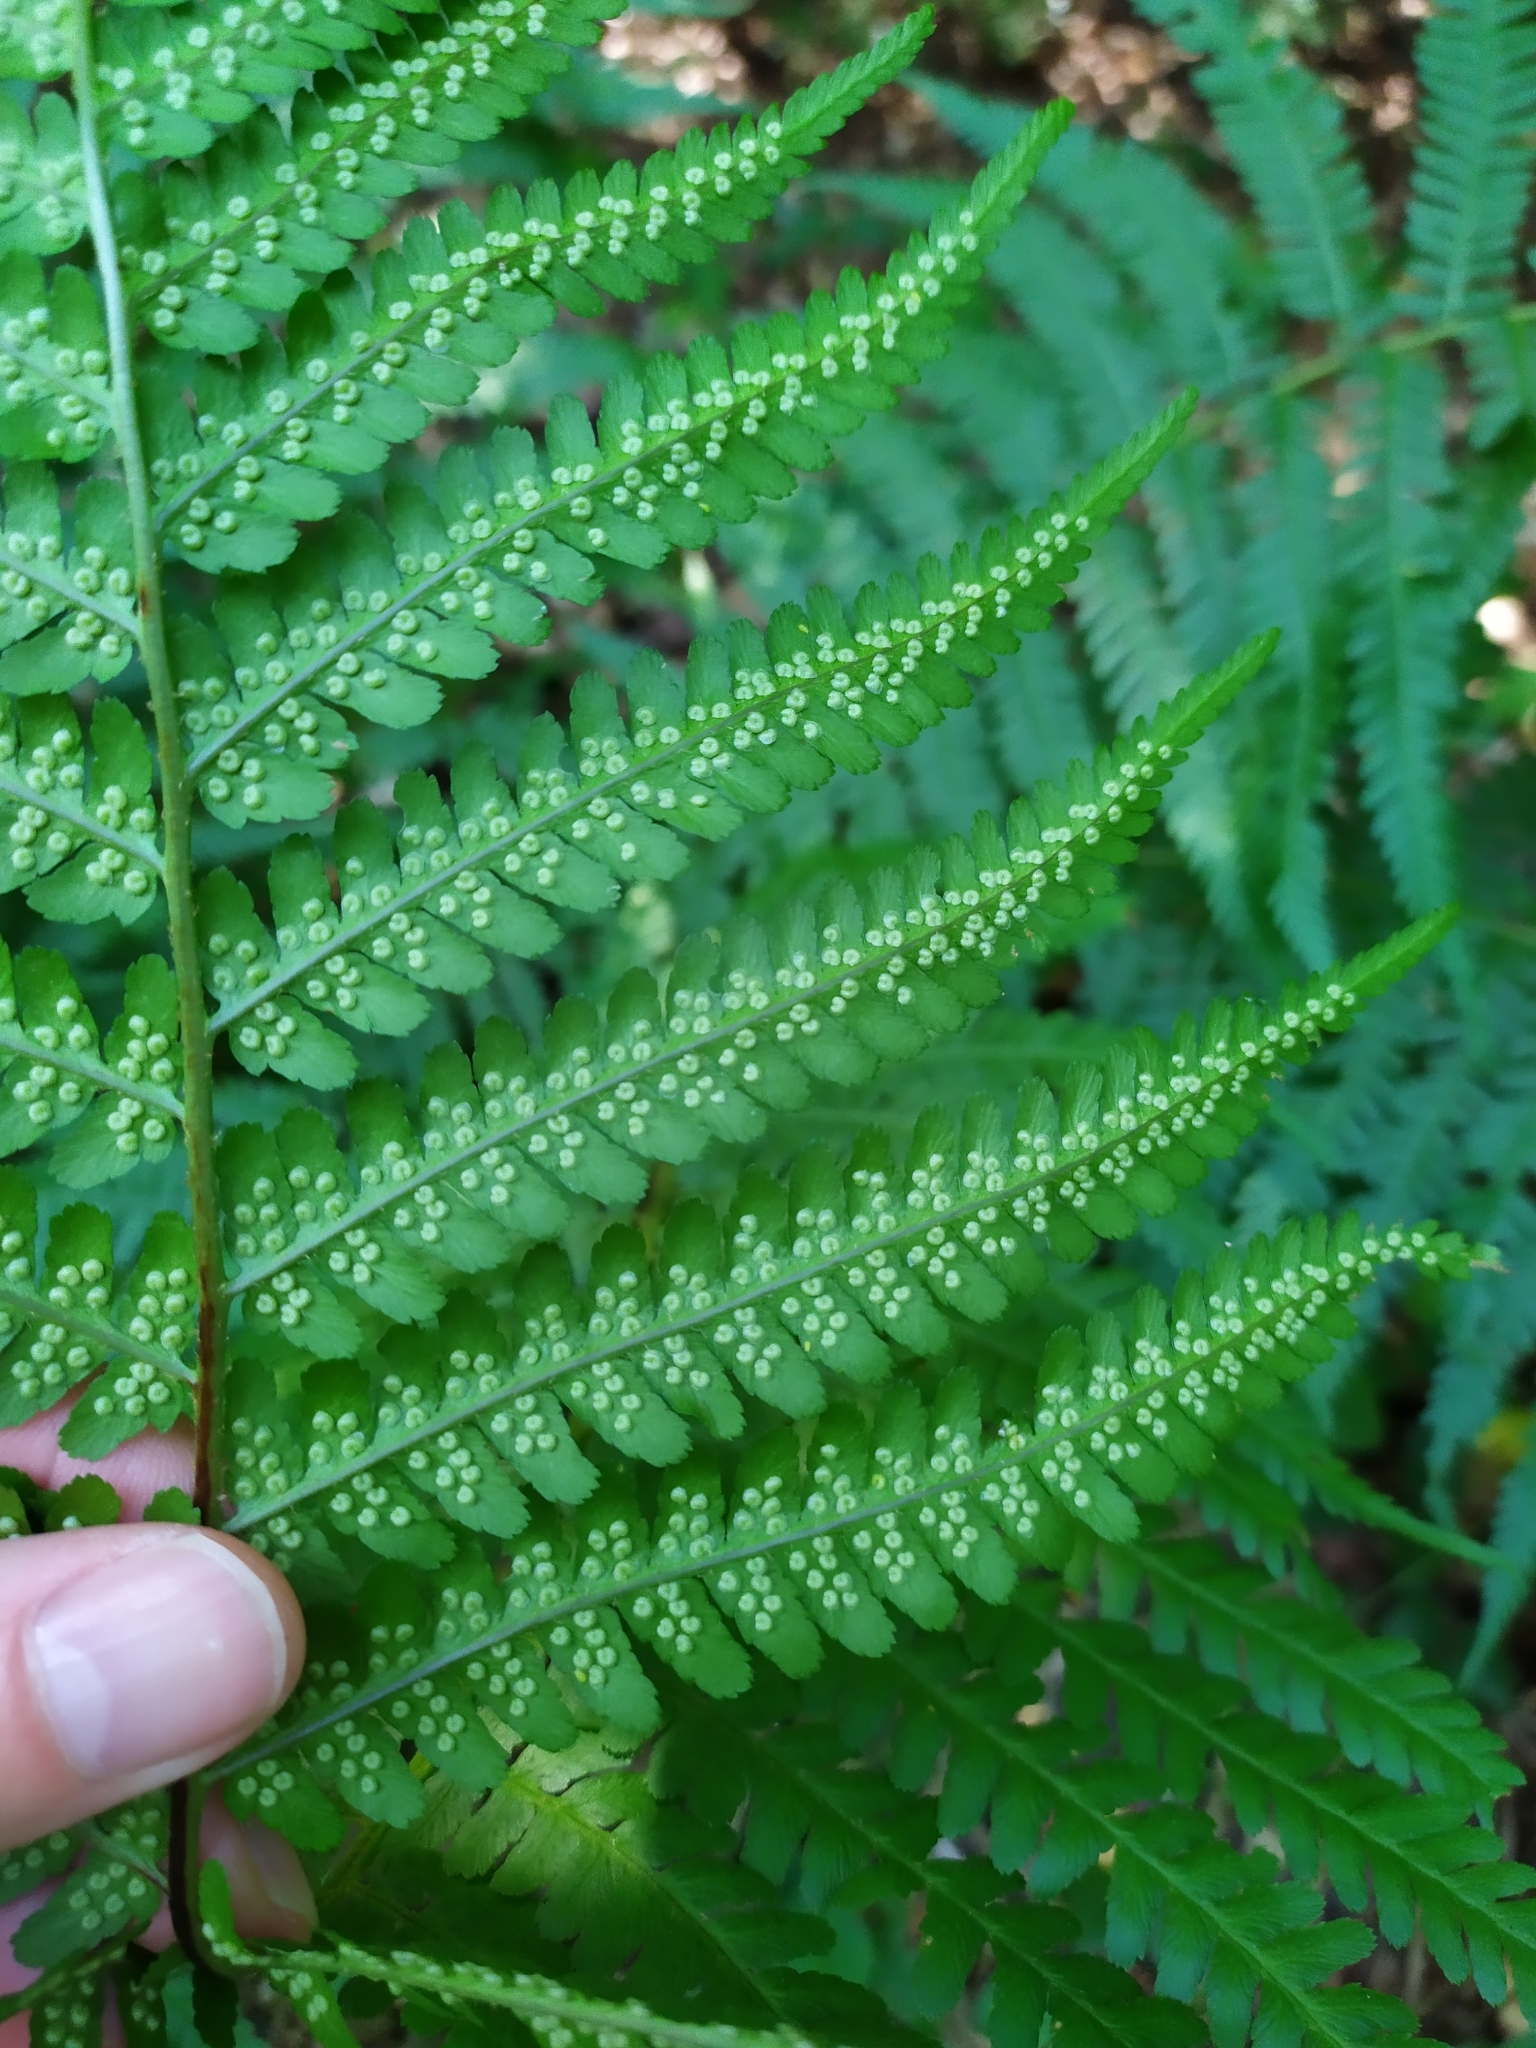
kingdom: Plantae
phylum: Tracheophyta
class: Polypodiopsida
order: Polypodiales
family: Dryopteridaceae
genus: Dryopteris
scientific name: Dryopteris filix-mas
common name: Male fern
